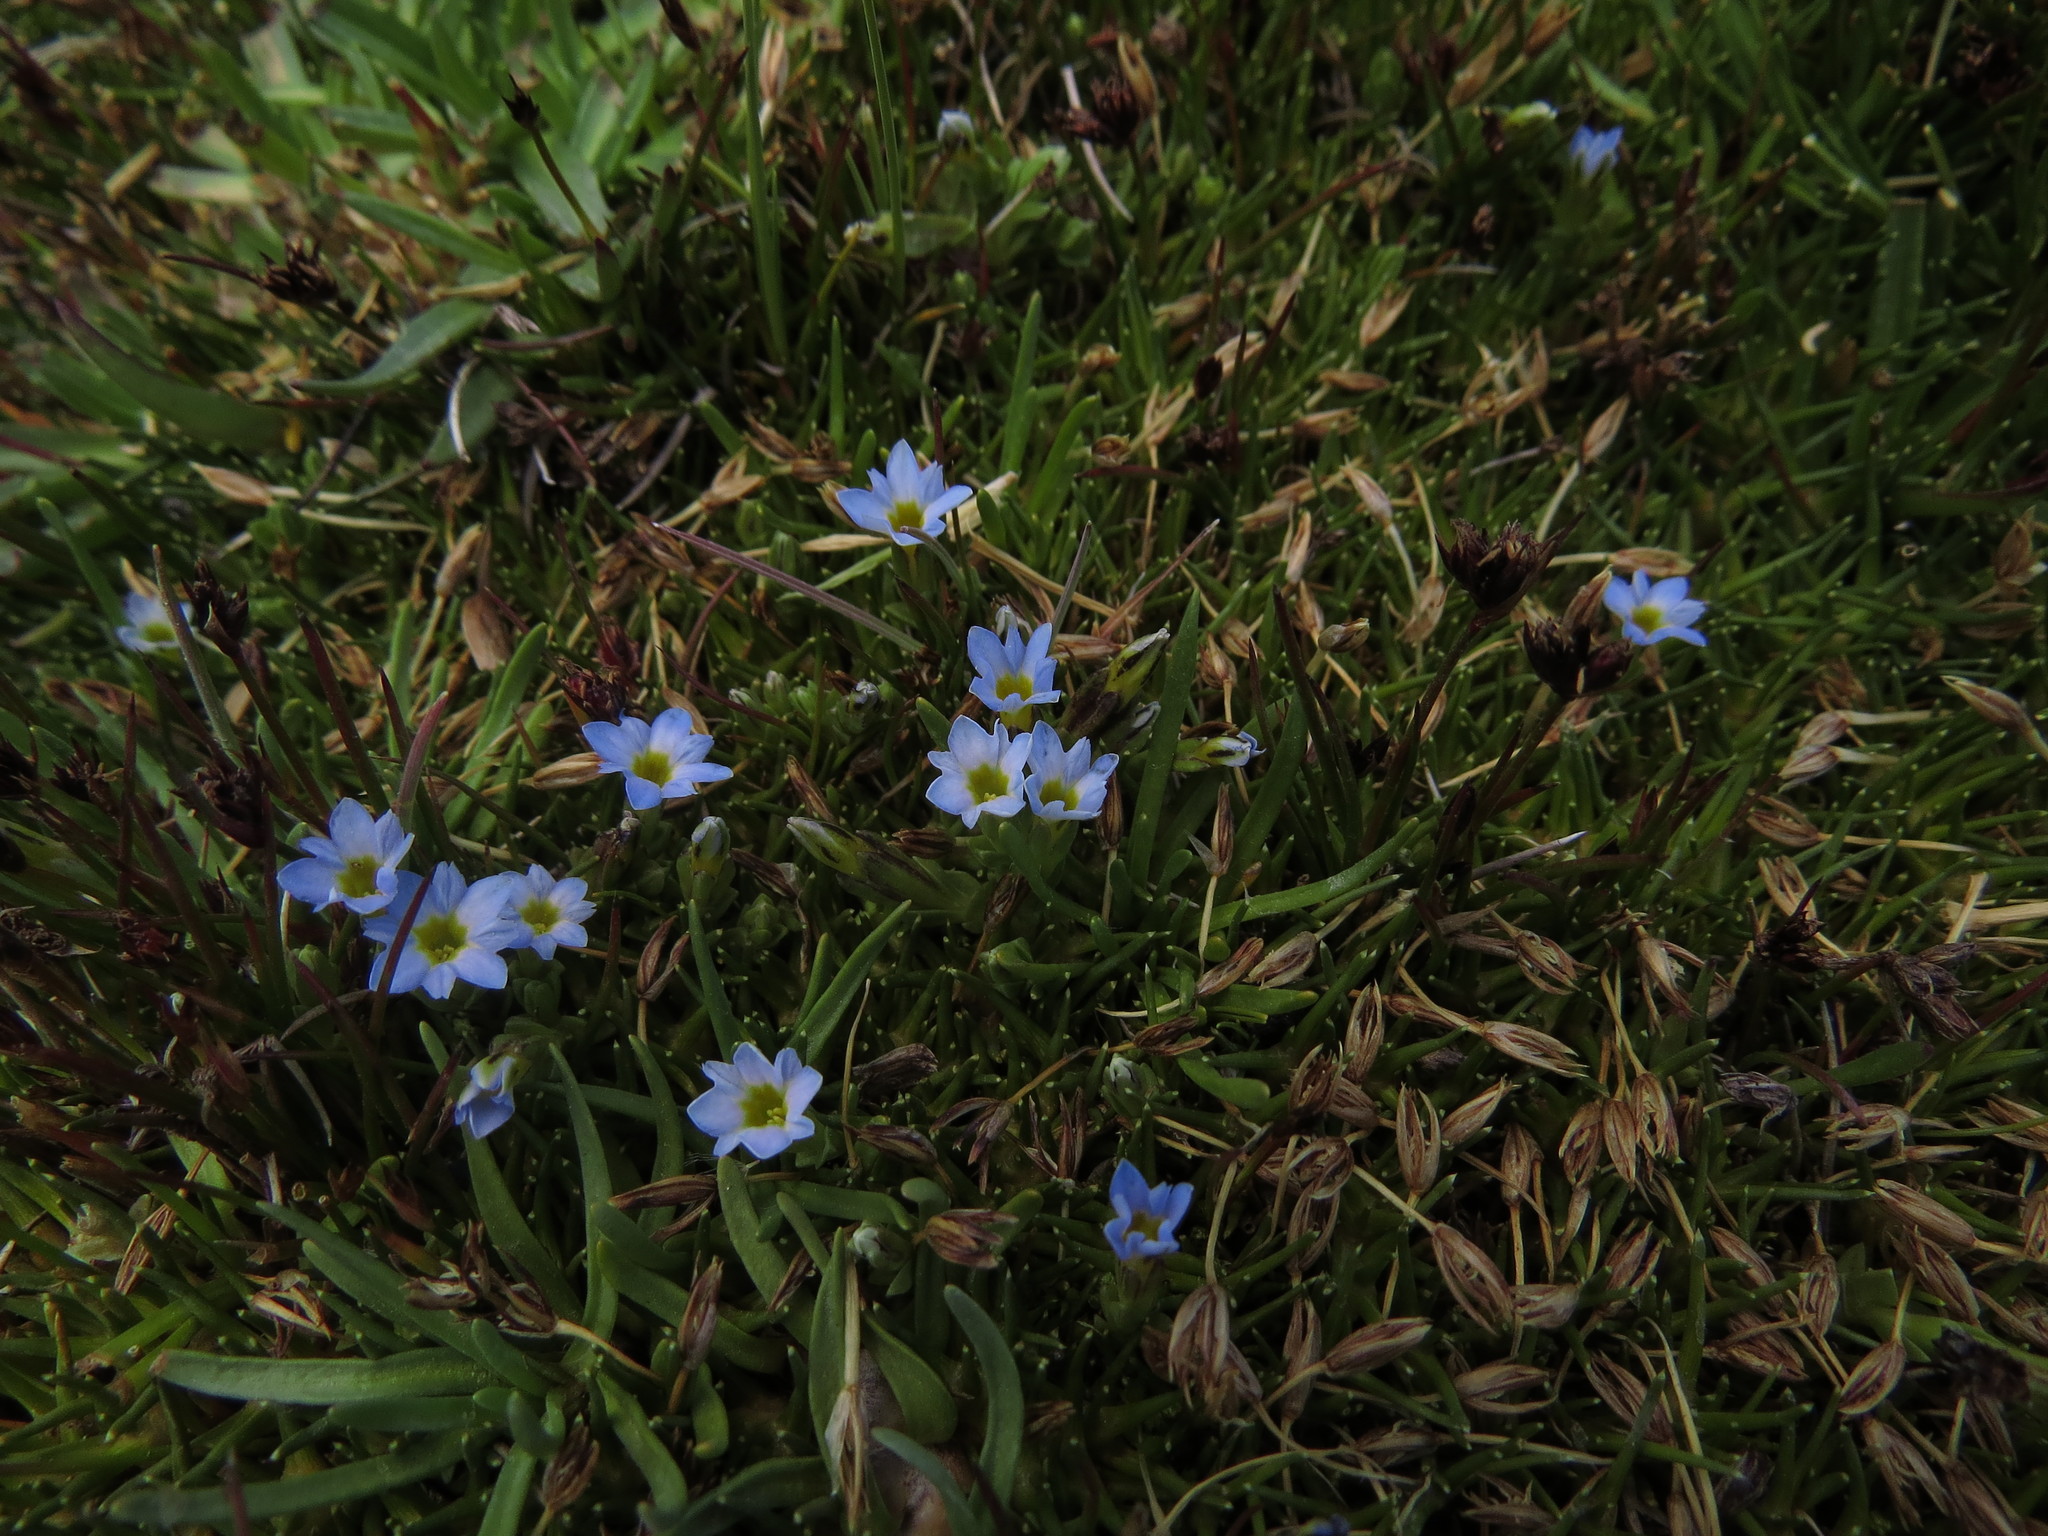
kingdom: Plantae
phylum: Tracheophyta
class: Magnoliopsida
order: Gentianales
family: Gentianaceae
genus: Gentiana
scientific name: Gentiana sedifolia
